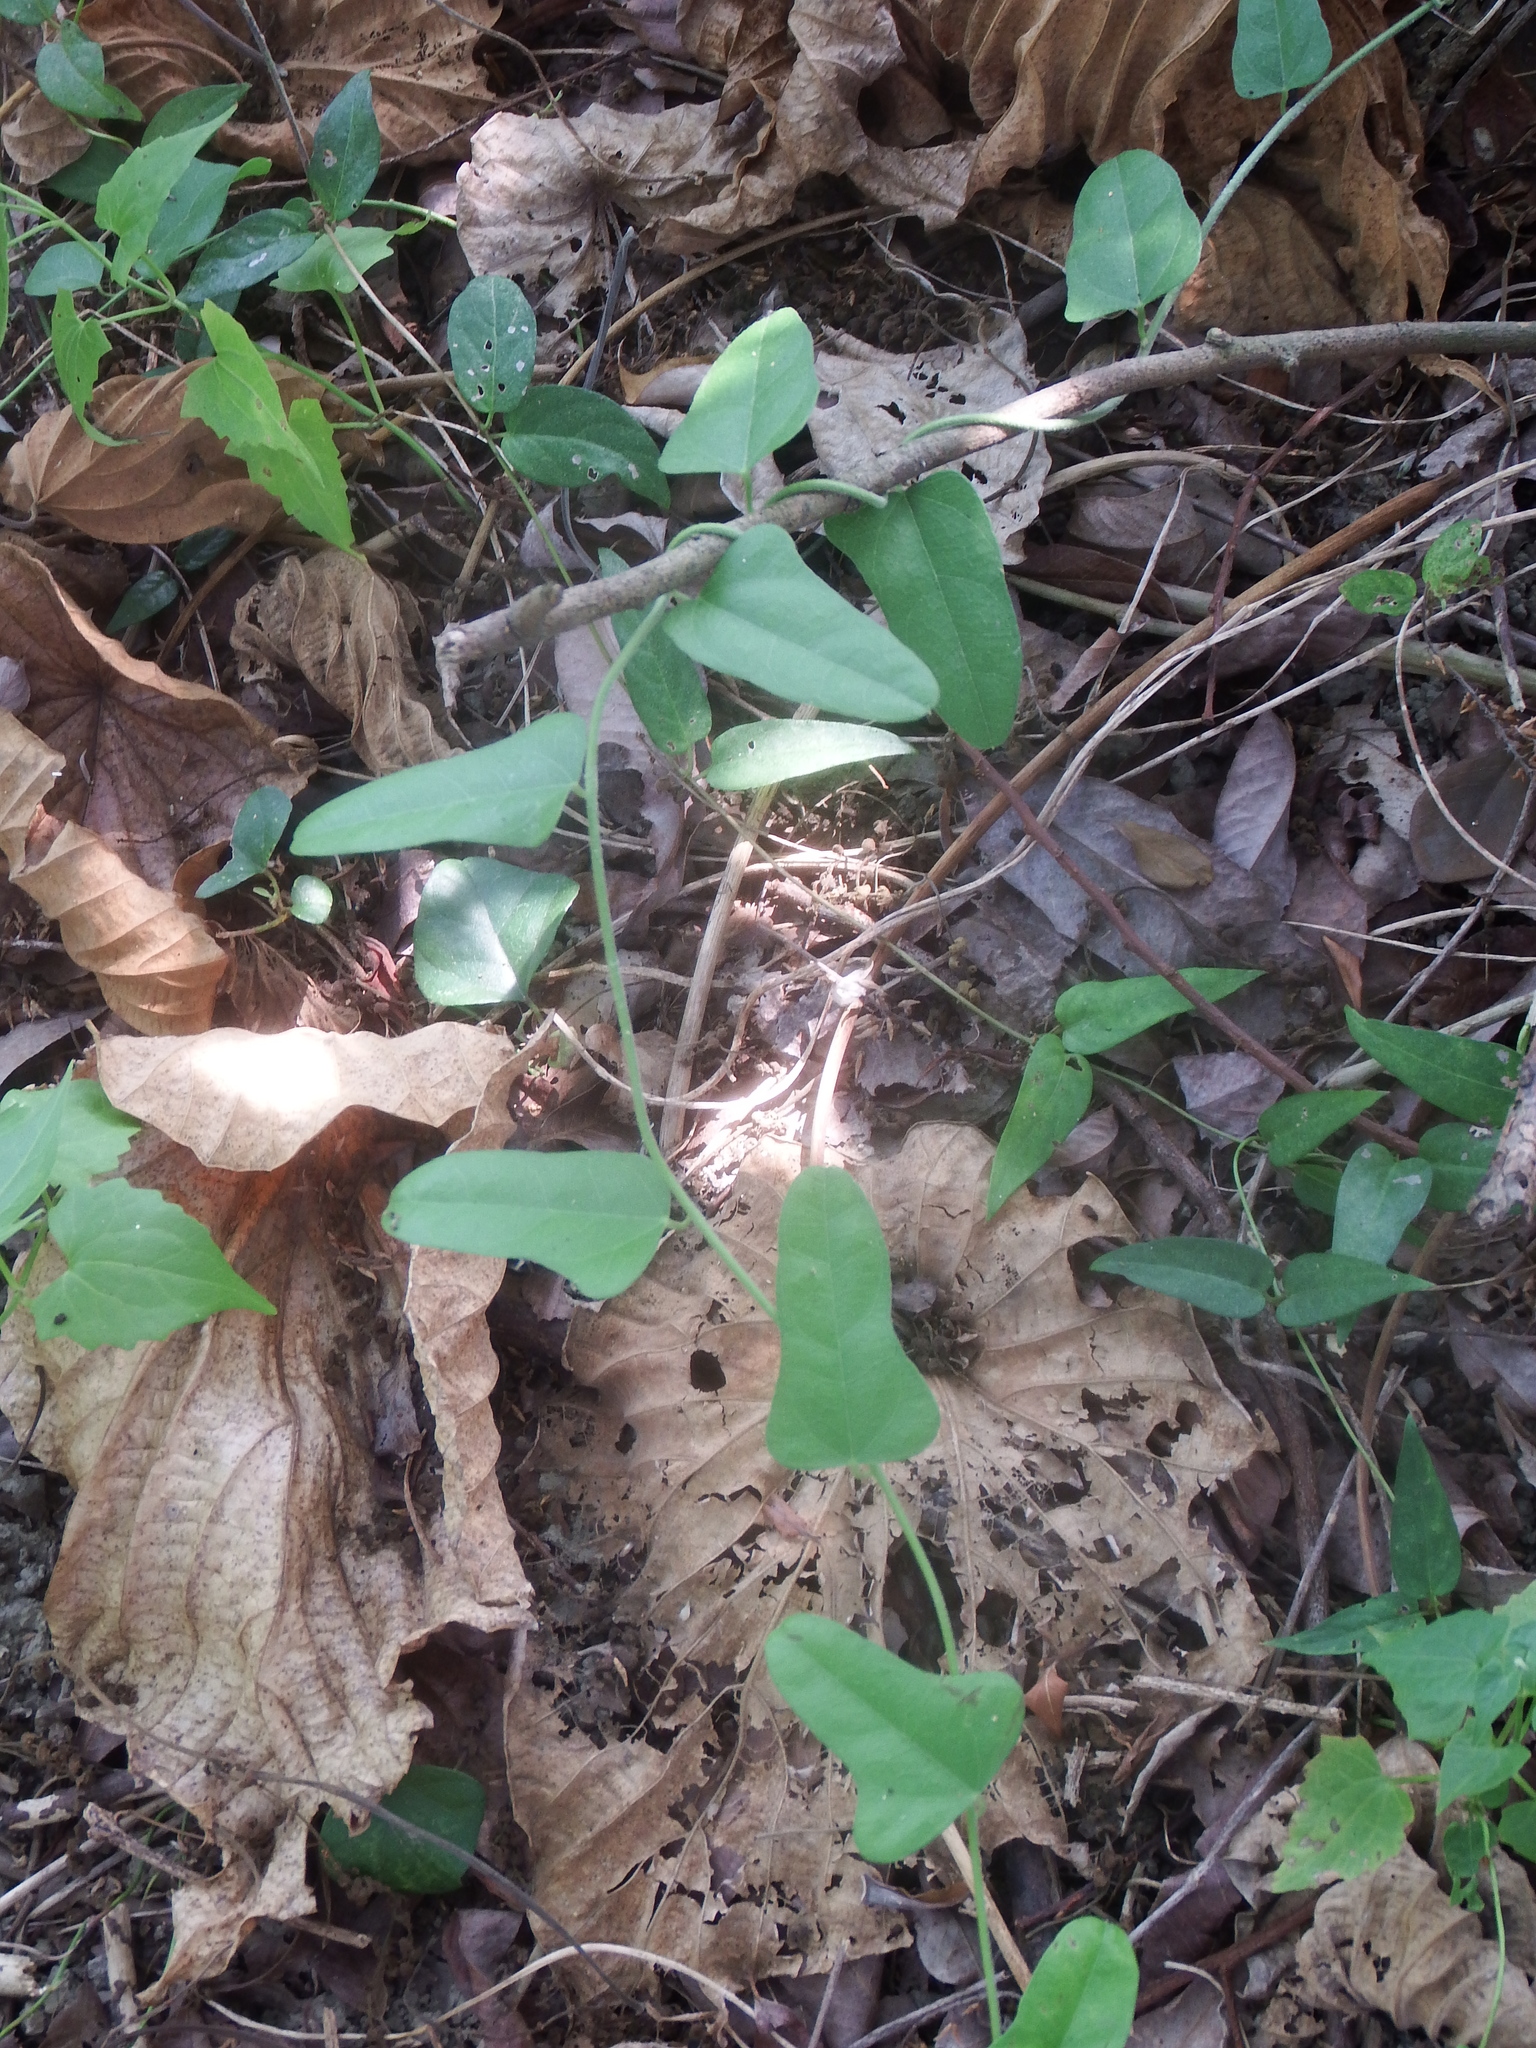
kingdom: Plantae
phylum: Tracheophyta
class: Magnoliopsida
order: Ranunculales
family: Menispermaceae
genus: Cocculus
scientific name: Cocculus orbiculatus
